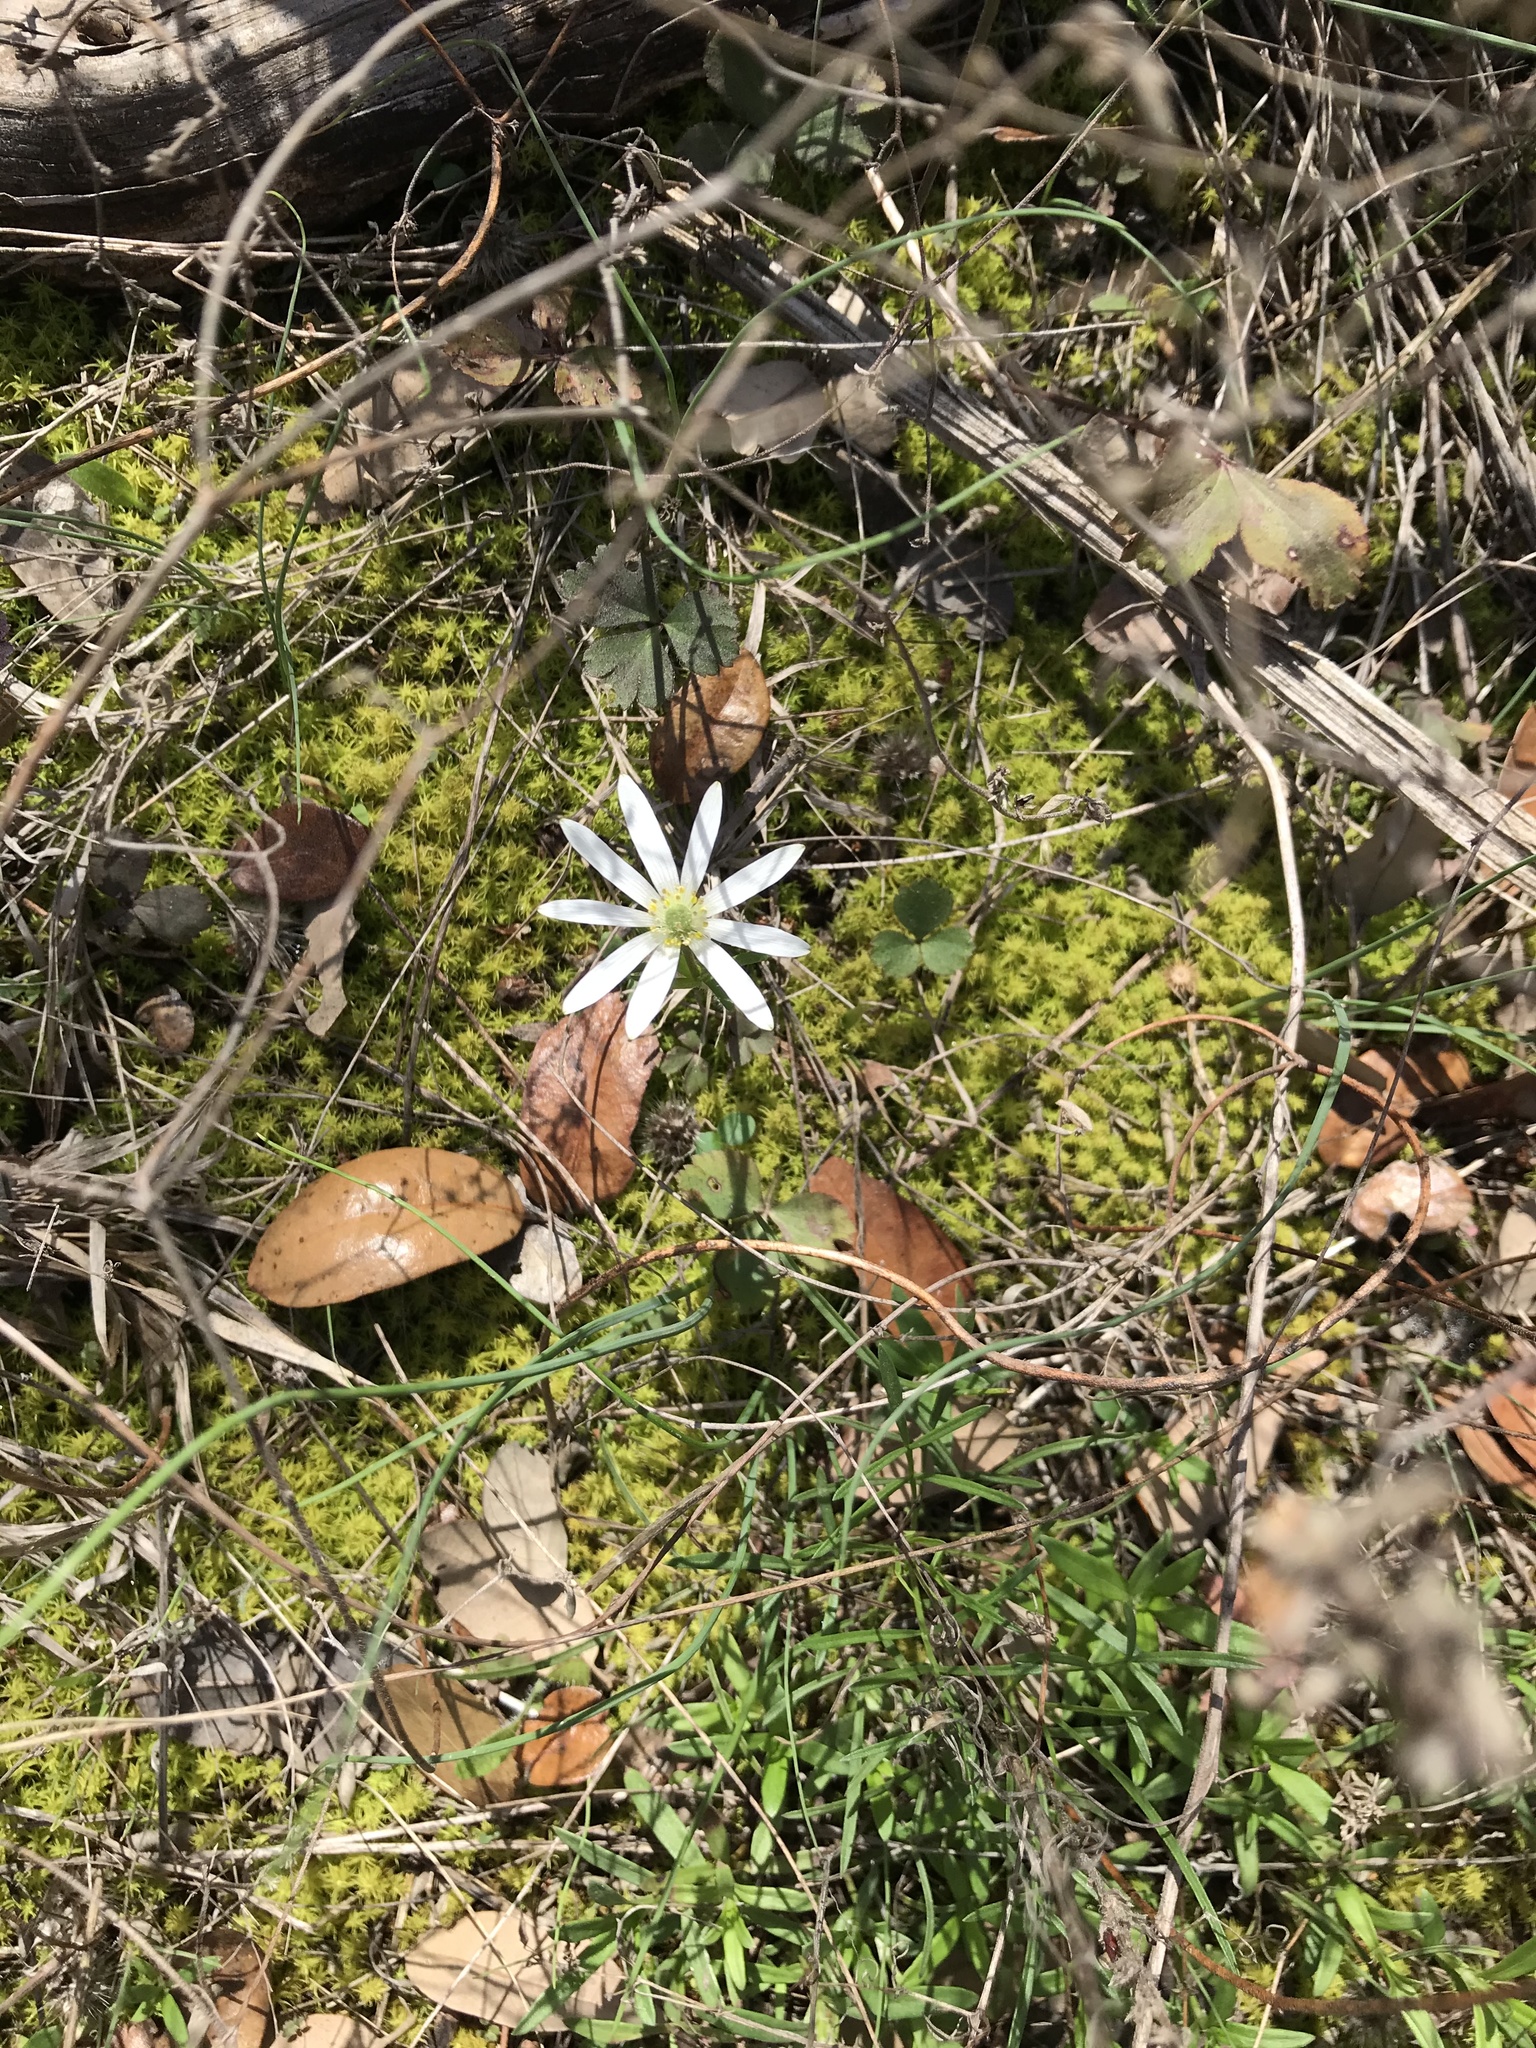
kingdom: Plantae
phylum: Tracheophyta
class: Magnoliopsida
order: Ranunculales
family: Ranunculaceae
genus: Anemone
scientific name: Anemone berlandieri
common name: Ten-petal anemone
